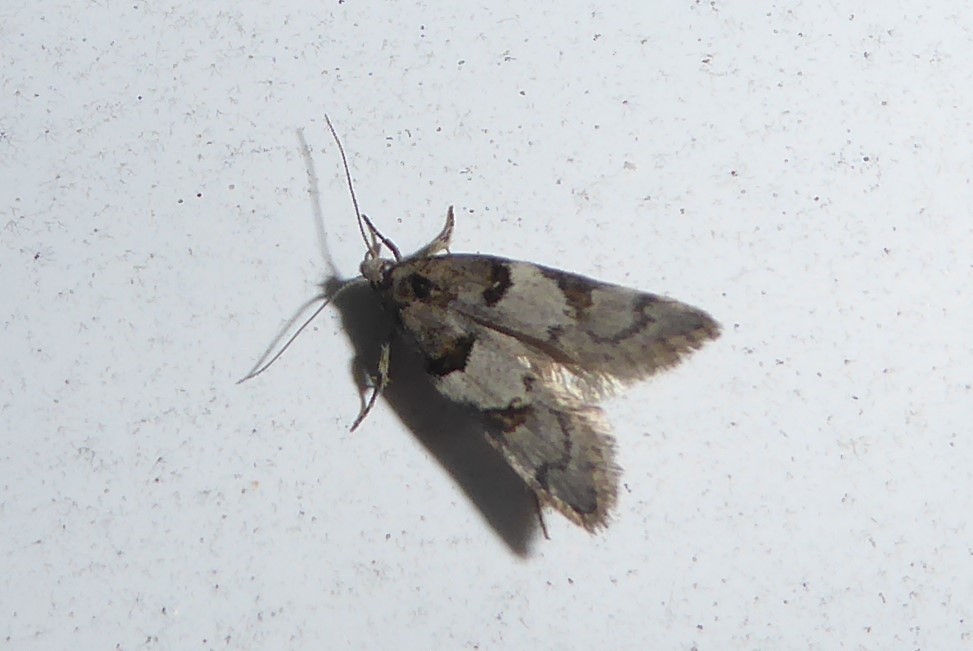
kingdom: Animalia
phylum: Arthropoda
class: Insecta
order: Lepidoptera
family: Oecophoridae
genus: Trachypepla
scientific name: Trachypepla contritella
